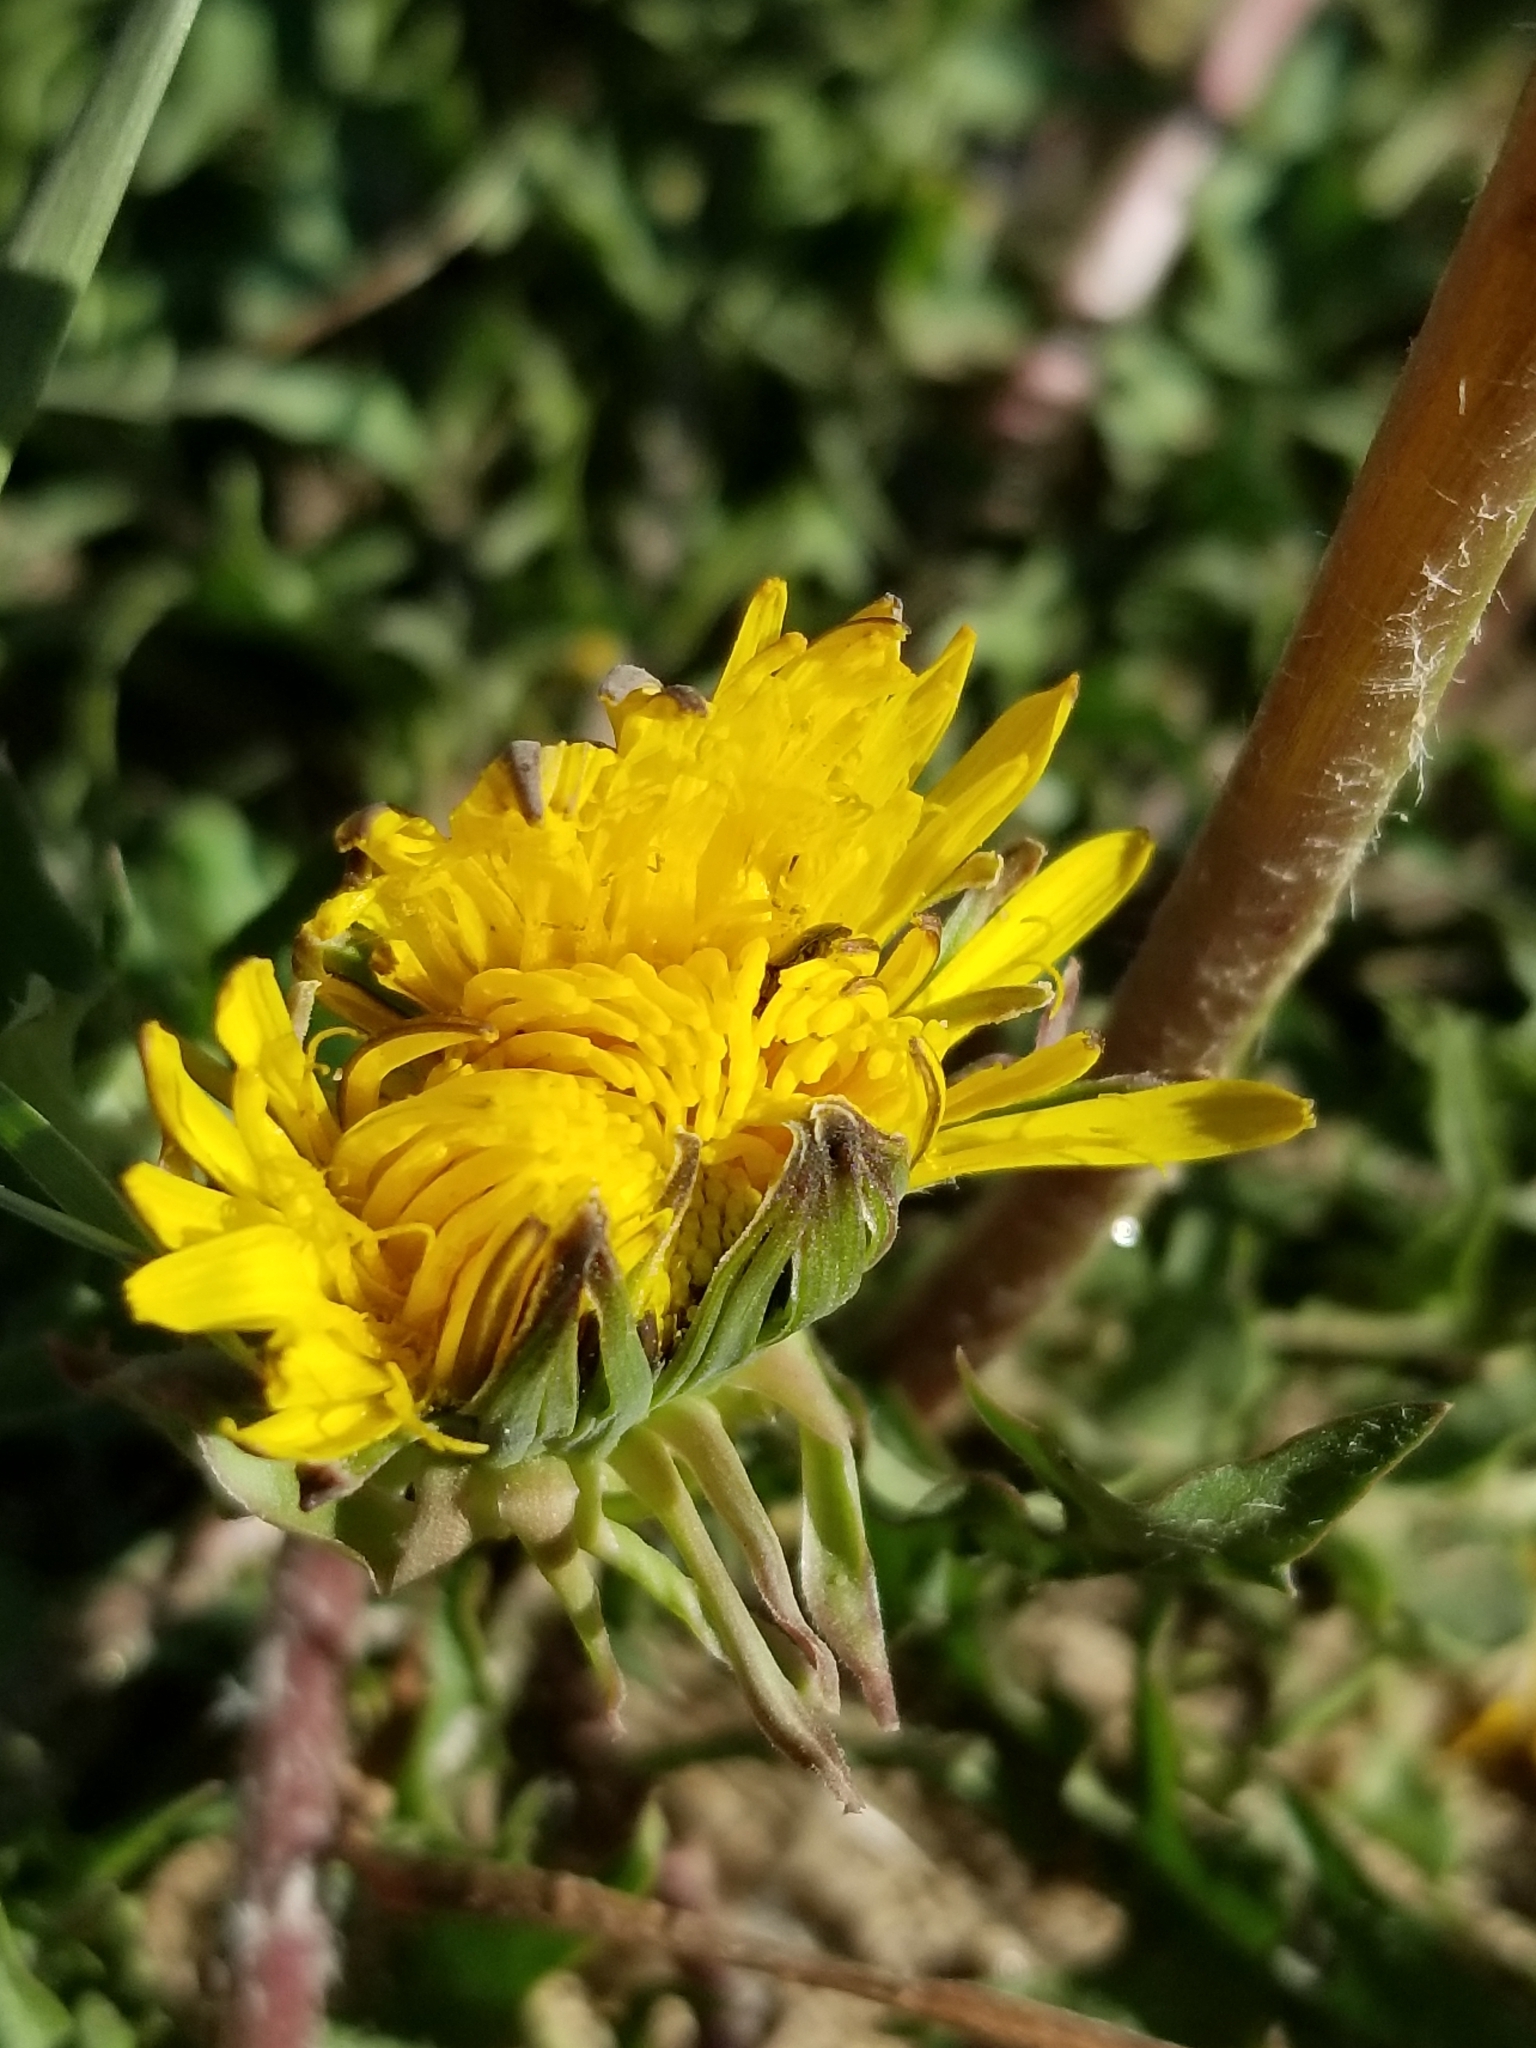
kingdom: Plantae
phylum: Tracheophyta
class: Magnoliopsida
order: Asterales
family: Asteraceae
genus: Taraxacum
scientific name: Taraxacum officinale
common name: Common dandelion
